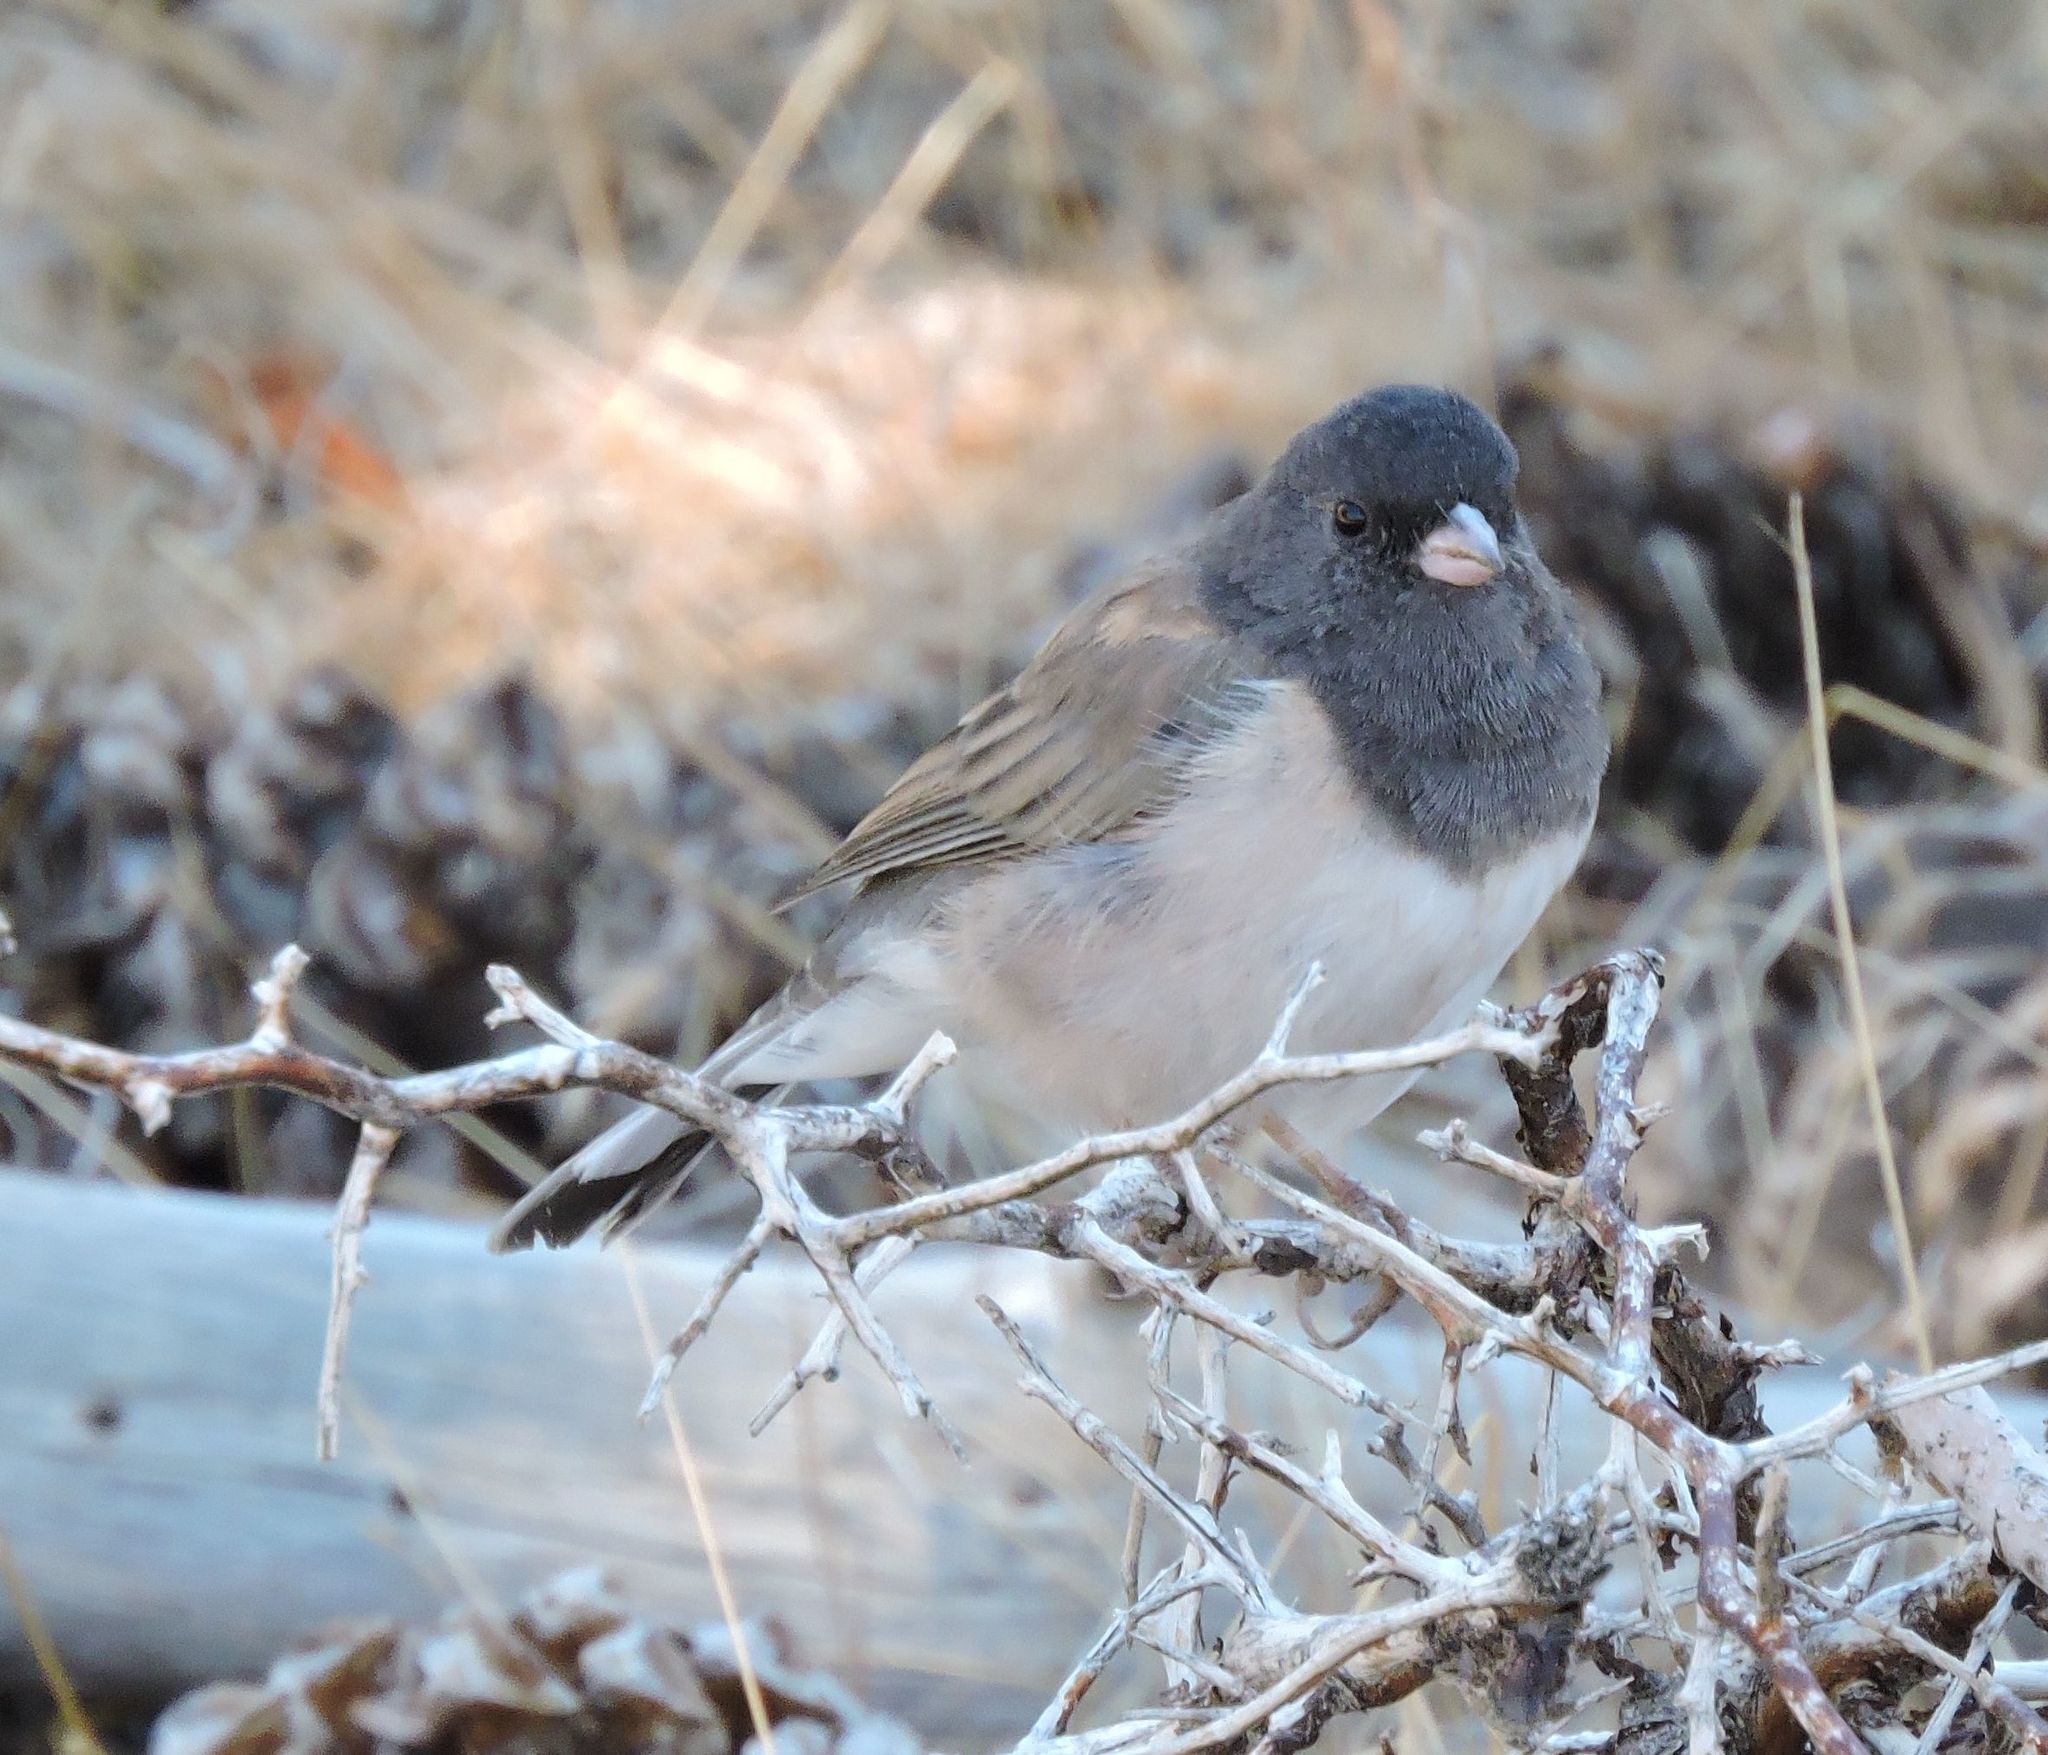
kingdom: Animalia
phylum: Chordata
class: Aves
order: Passeriformes
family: Passerellidae
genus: Junco
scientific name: Junco hyemalis
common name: Dark-eyed junco
